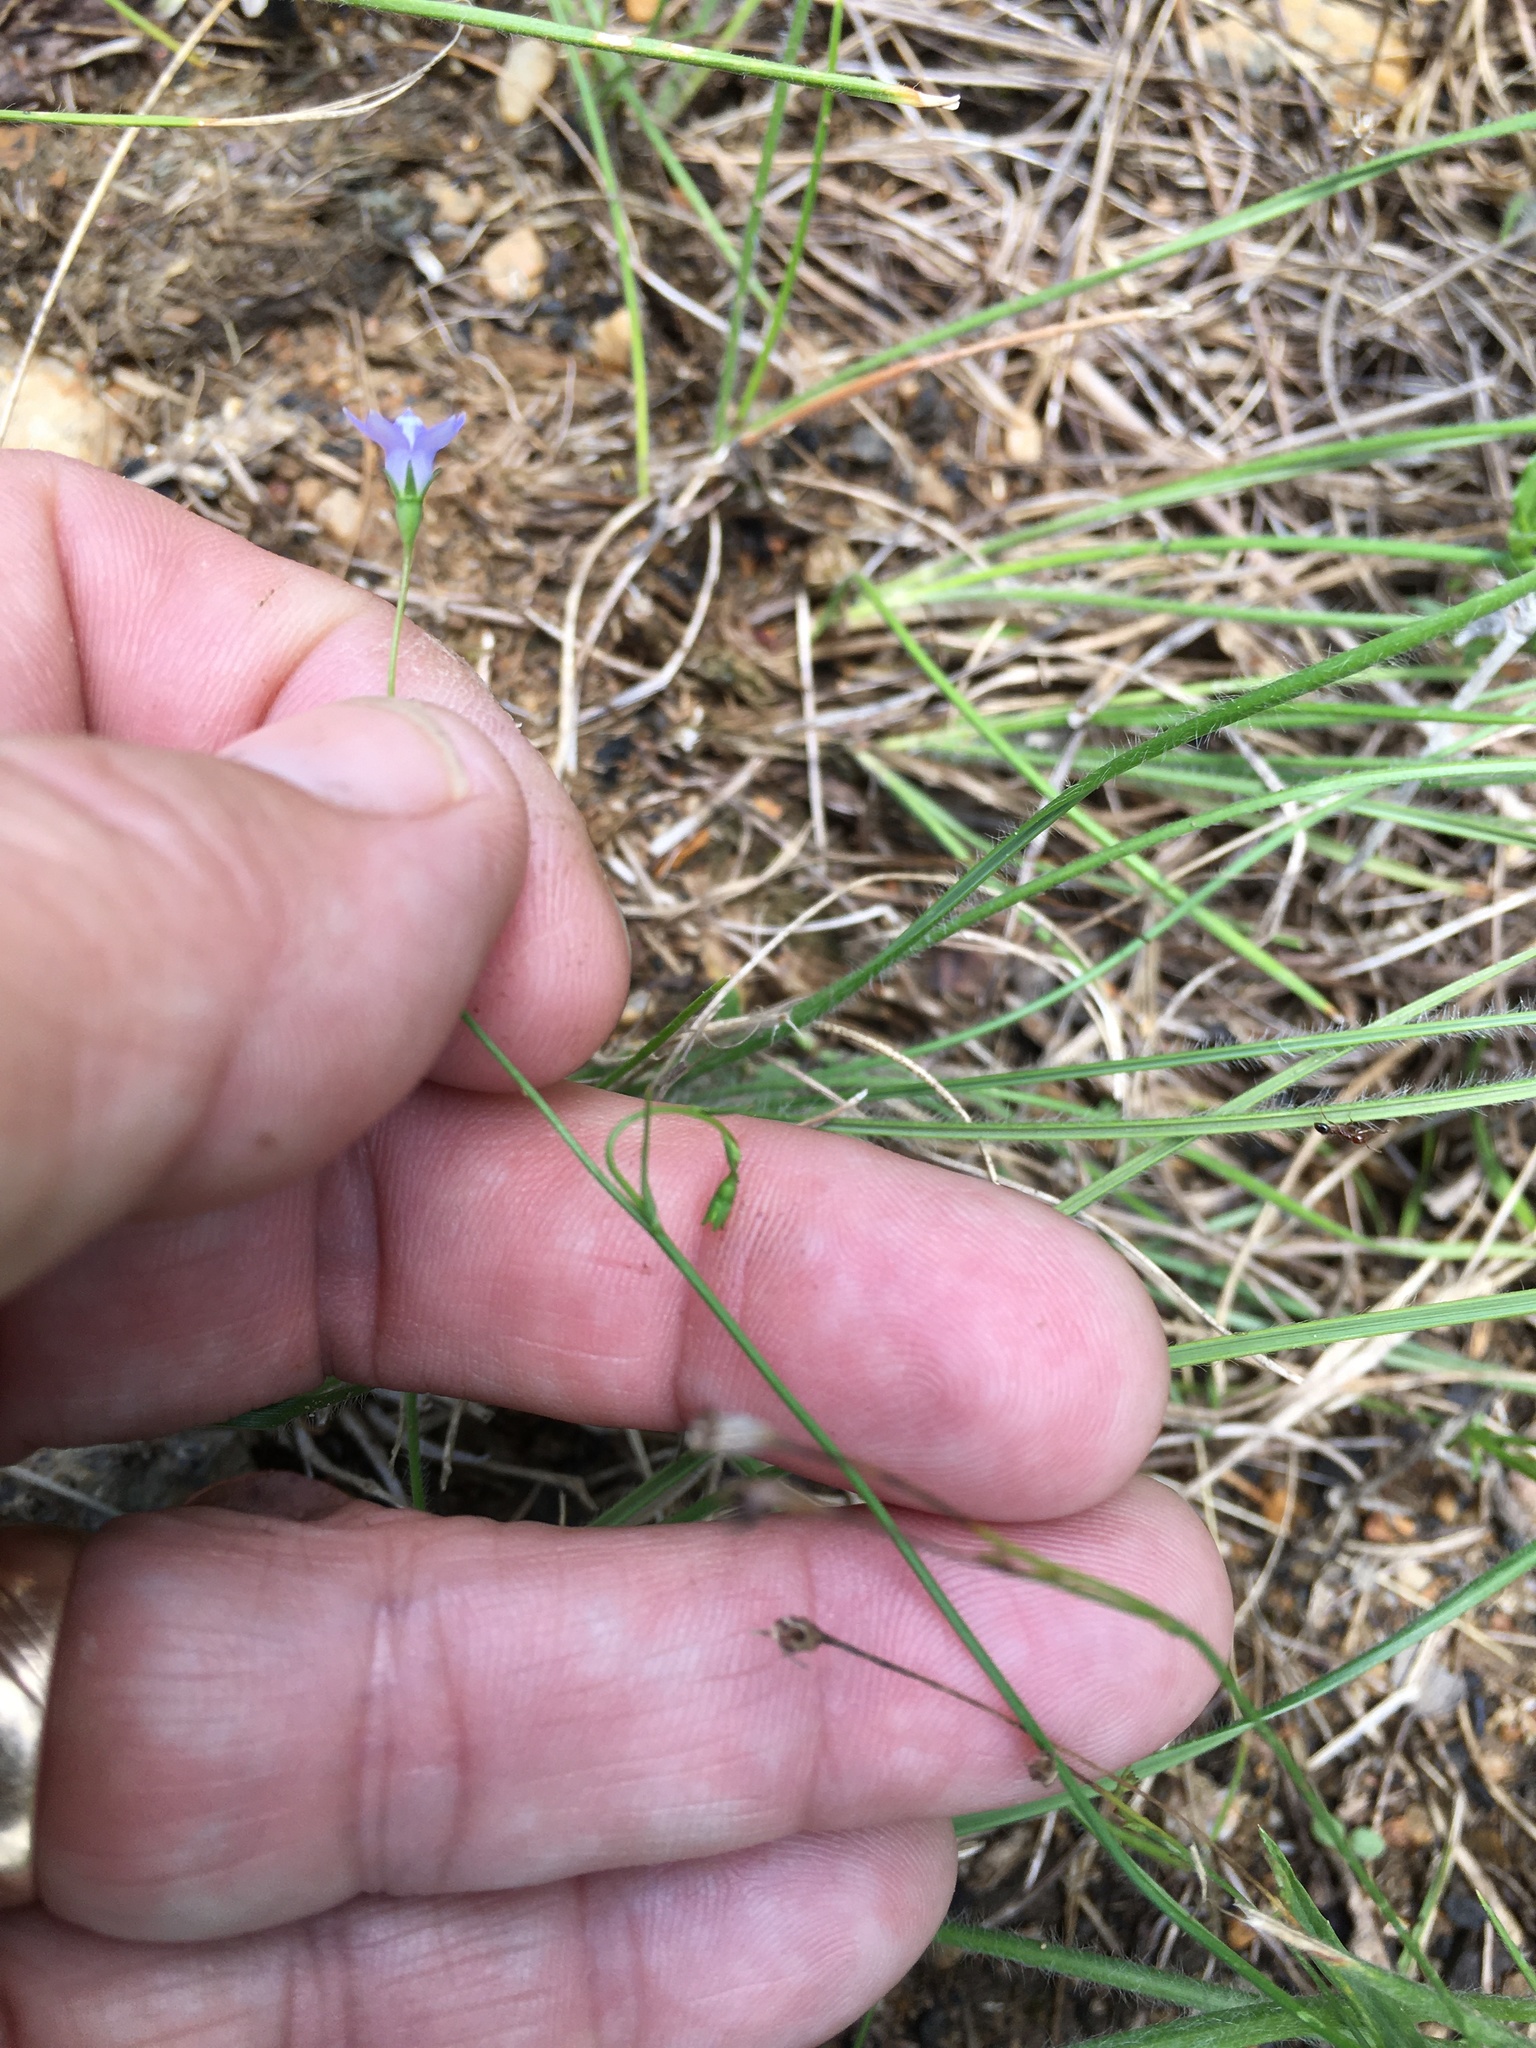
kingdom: Plantae
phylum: Tracheophyta
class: Magnoliopsida
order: Asterales
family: Campanulaceae
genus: Wahlenbergia
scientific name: Wahlenbergia marginata
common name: Southern rockbell
